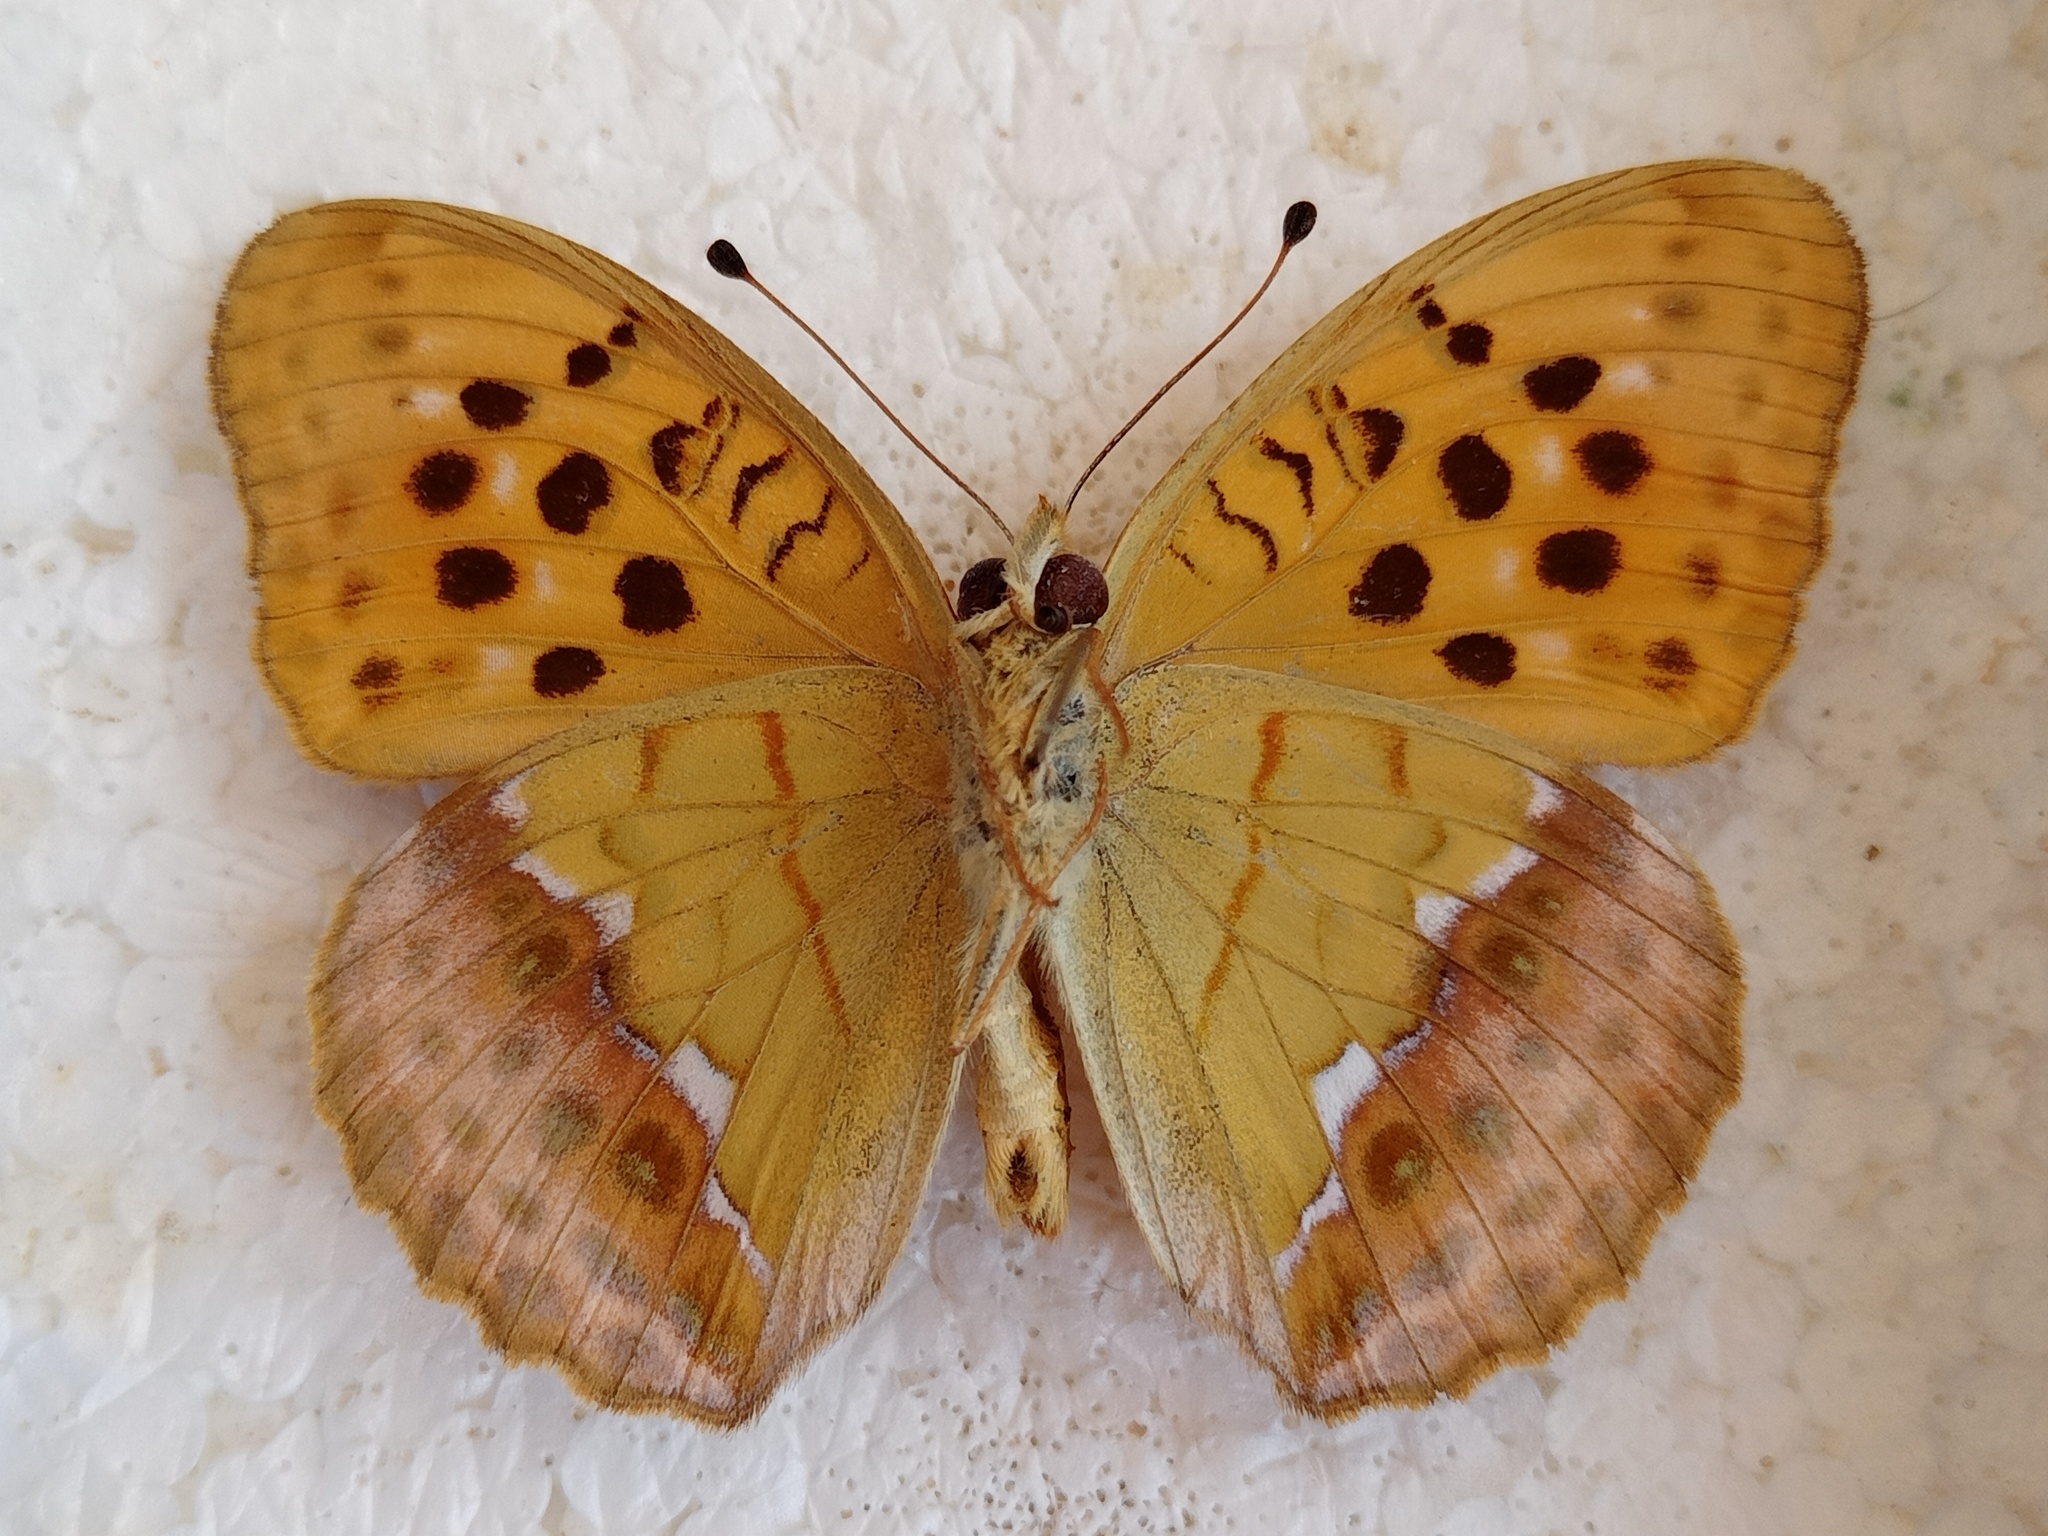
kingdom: Animalia
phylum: Arthropoda
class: Insecta
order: Lepidoptera
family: Nymphalidae
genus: Argyronome
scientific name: Argyronome laodice
